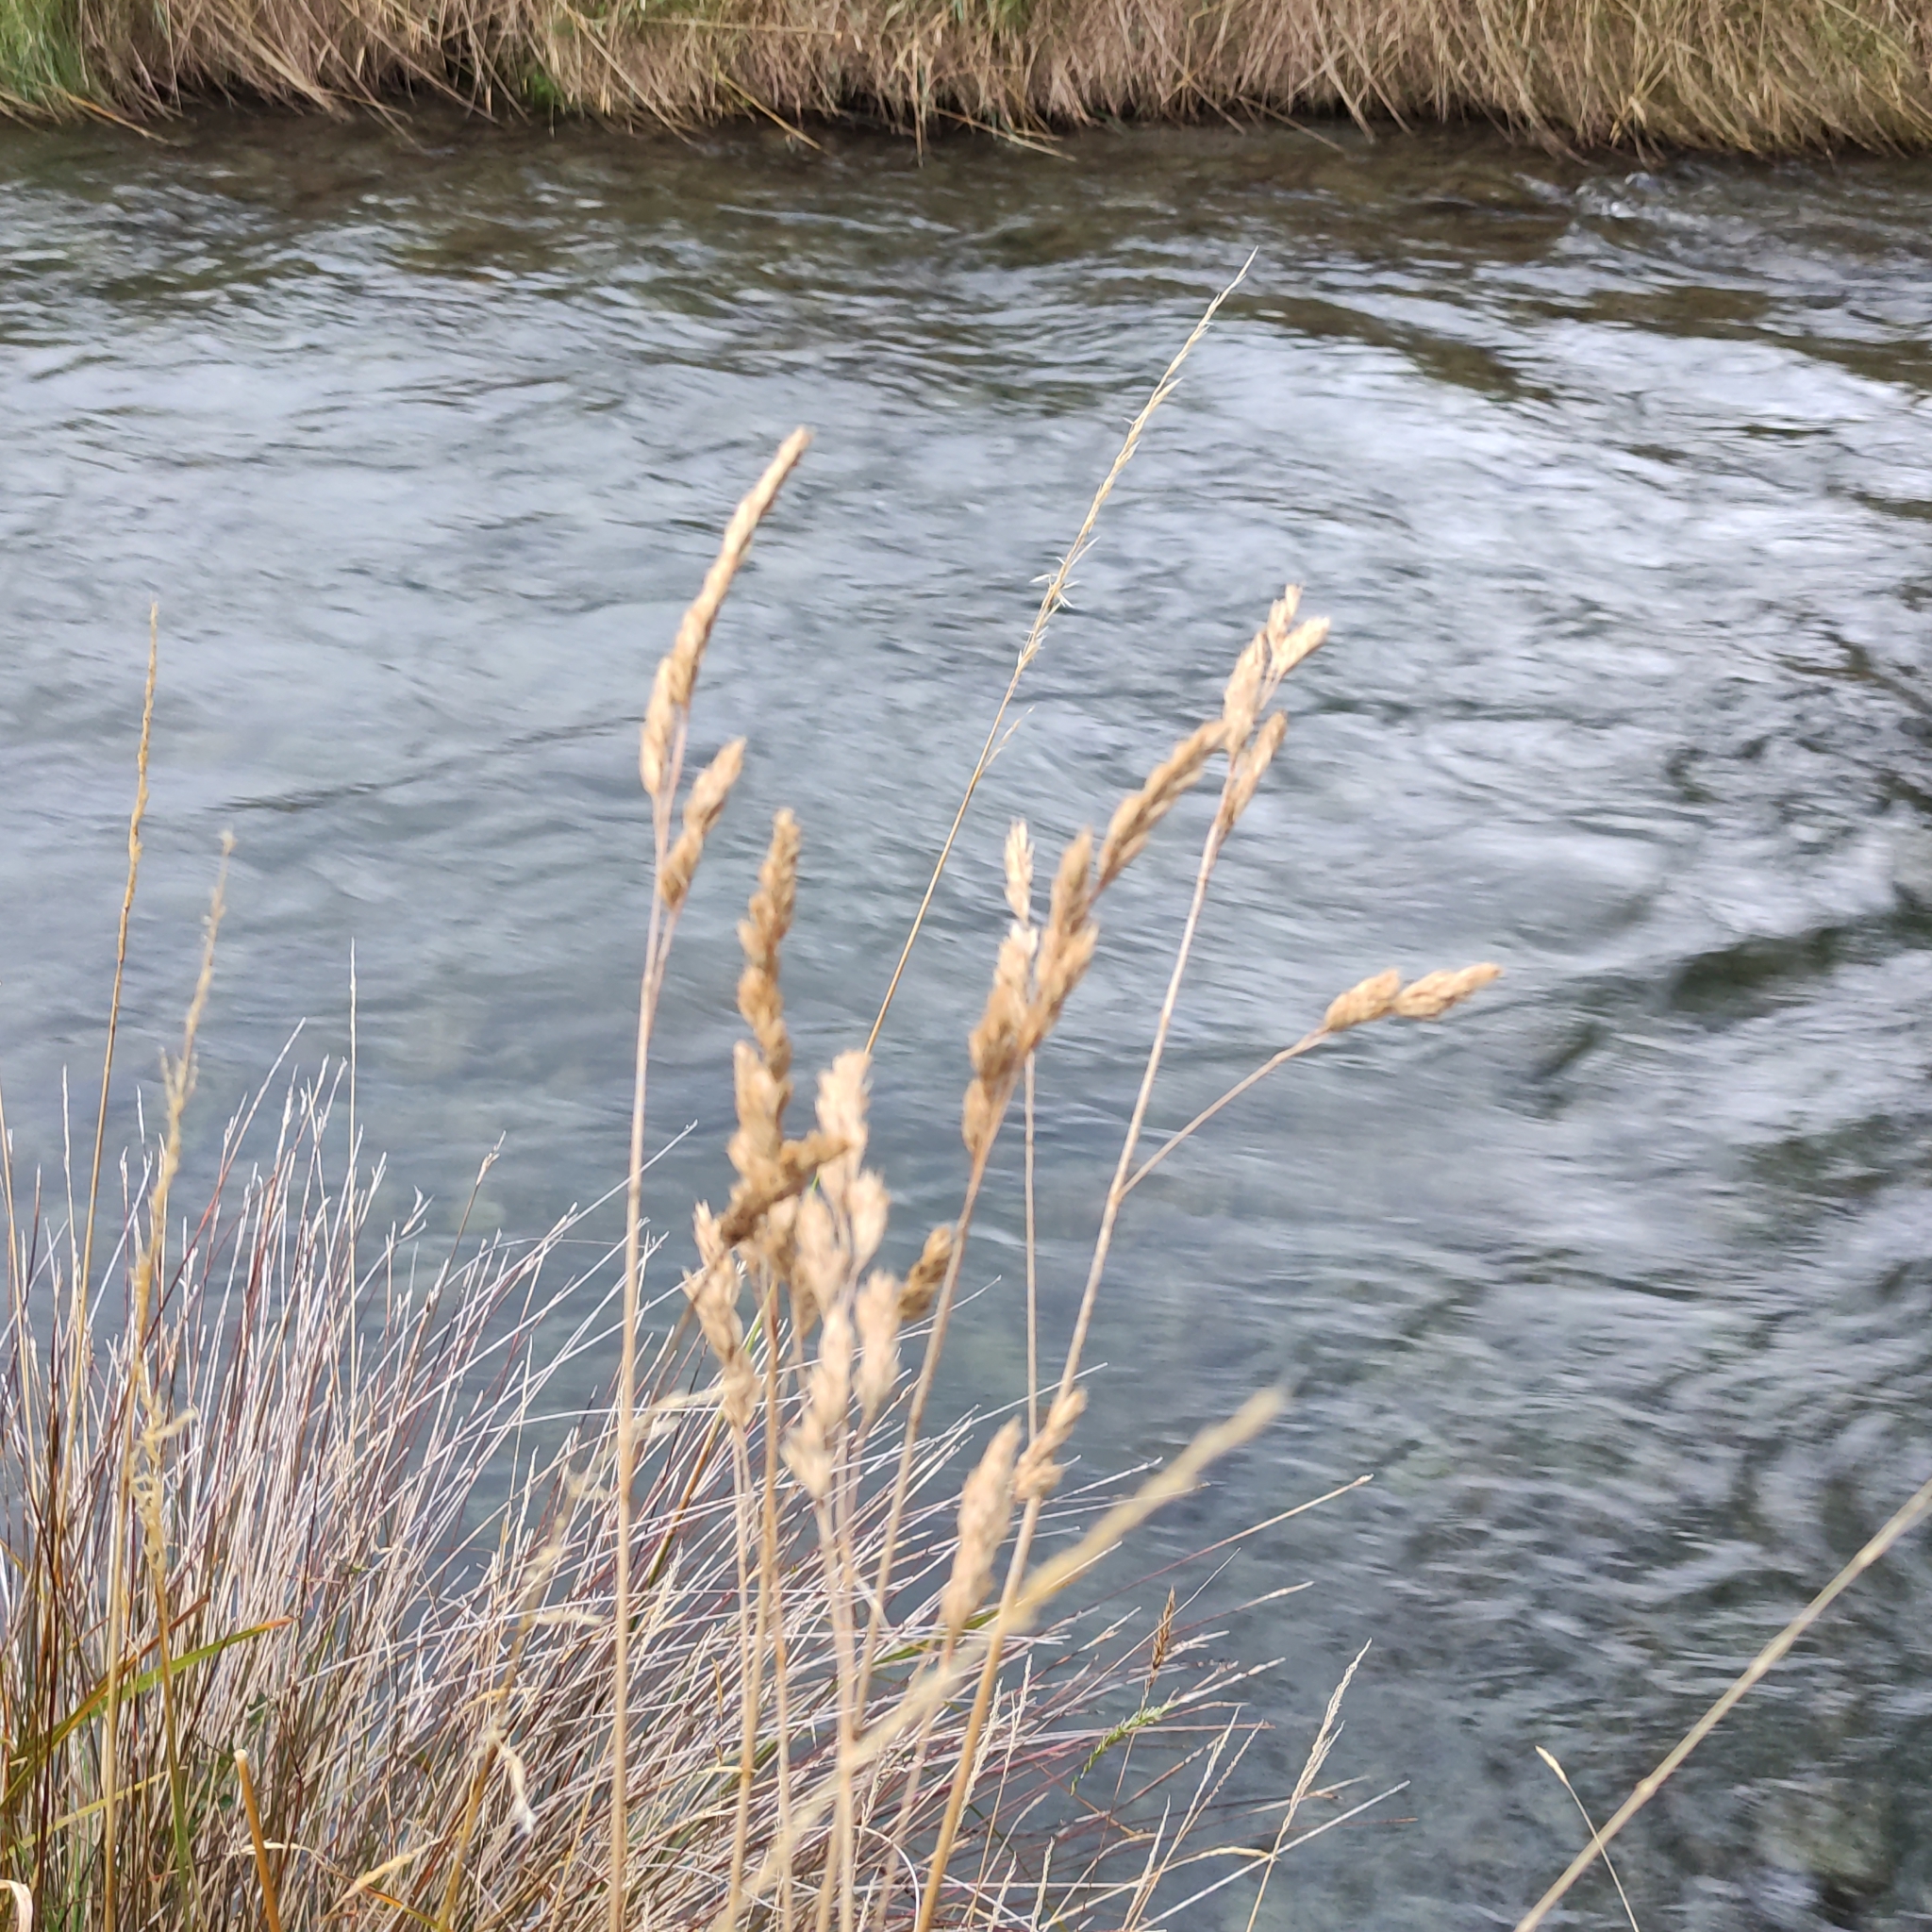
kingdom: Plantae
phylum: Tracheophyta
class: Liliopsida
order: Poales
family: Poaceae
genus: Dactylis
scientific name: Dactylis glomerata
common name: Orchardgrass
